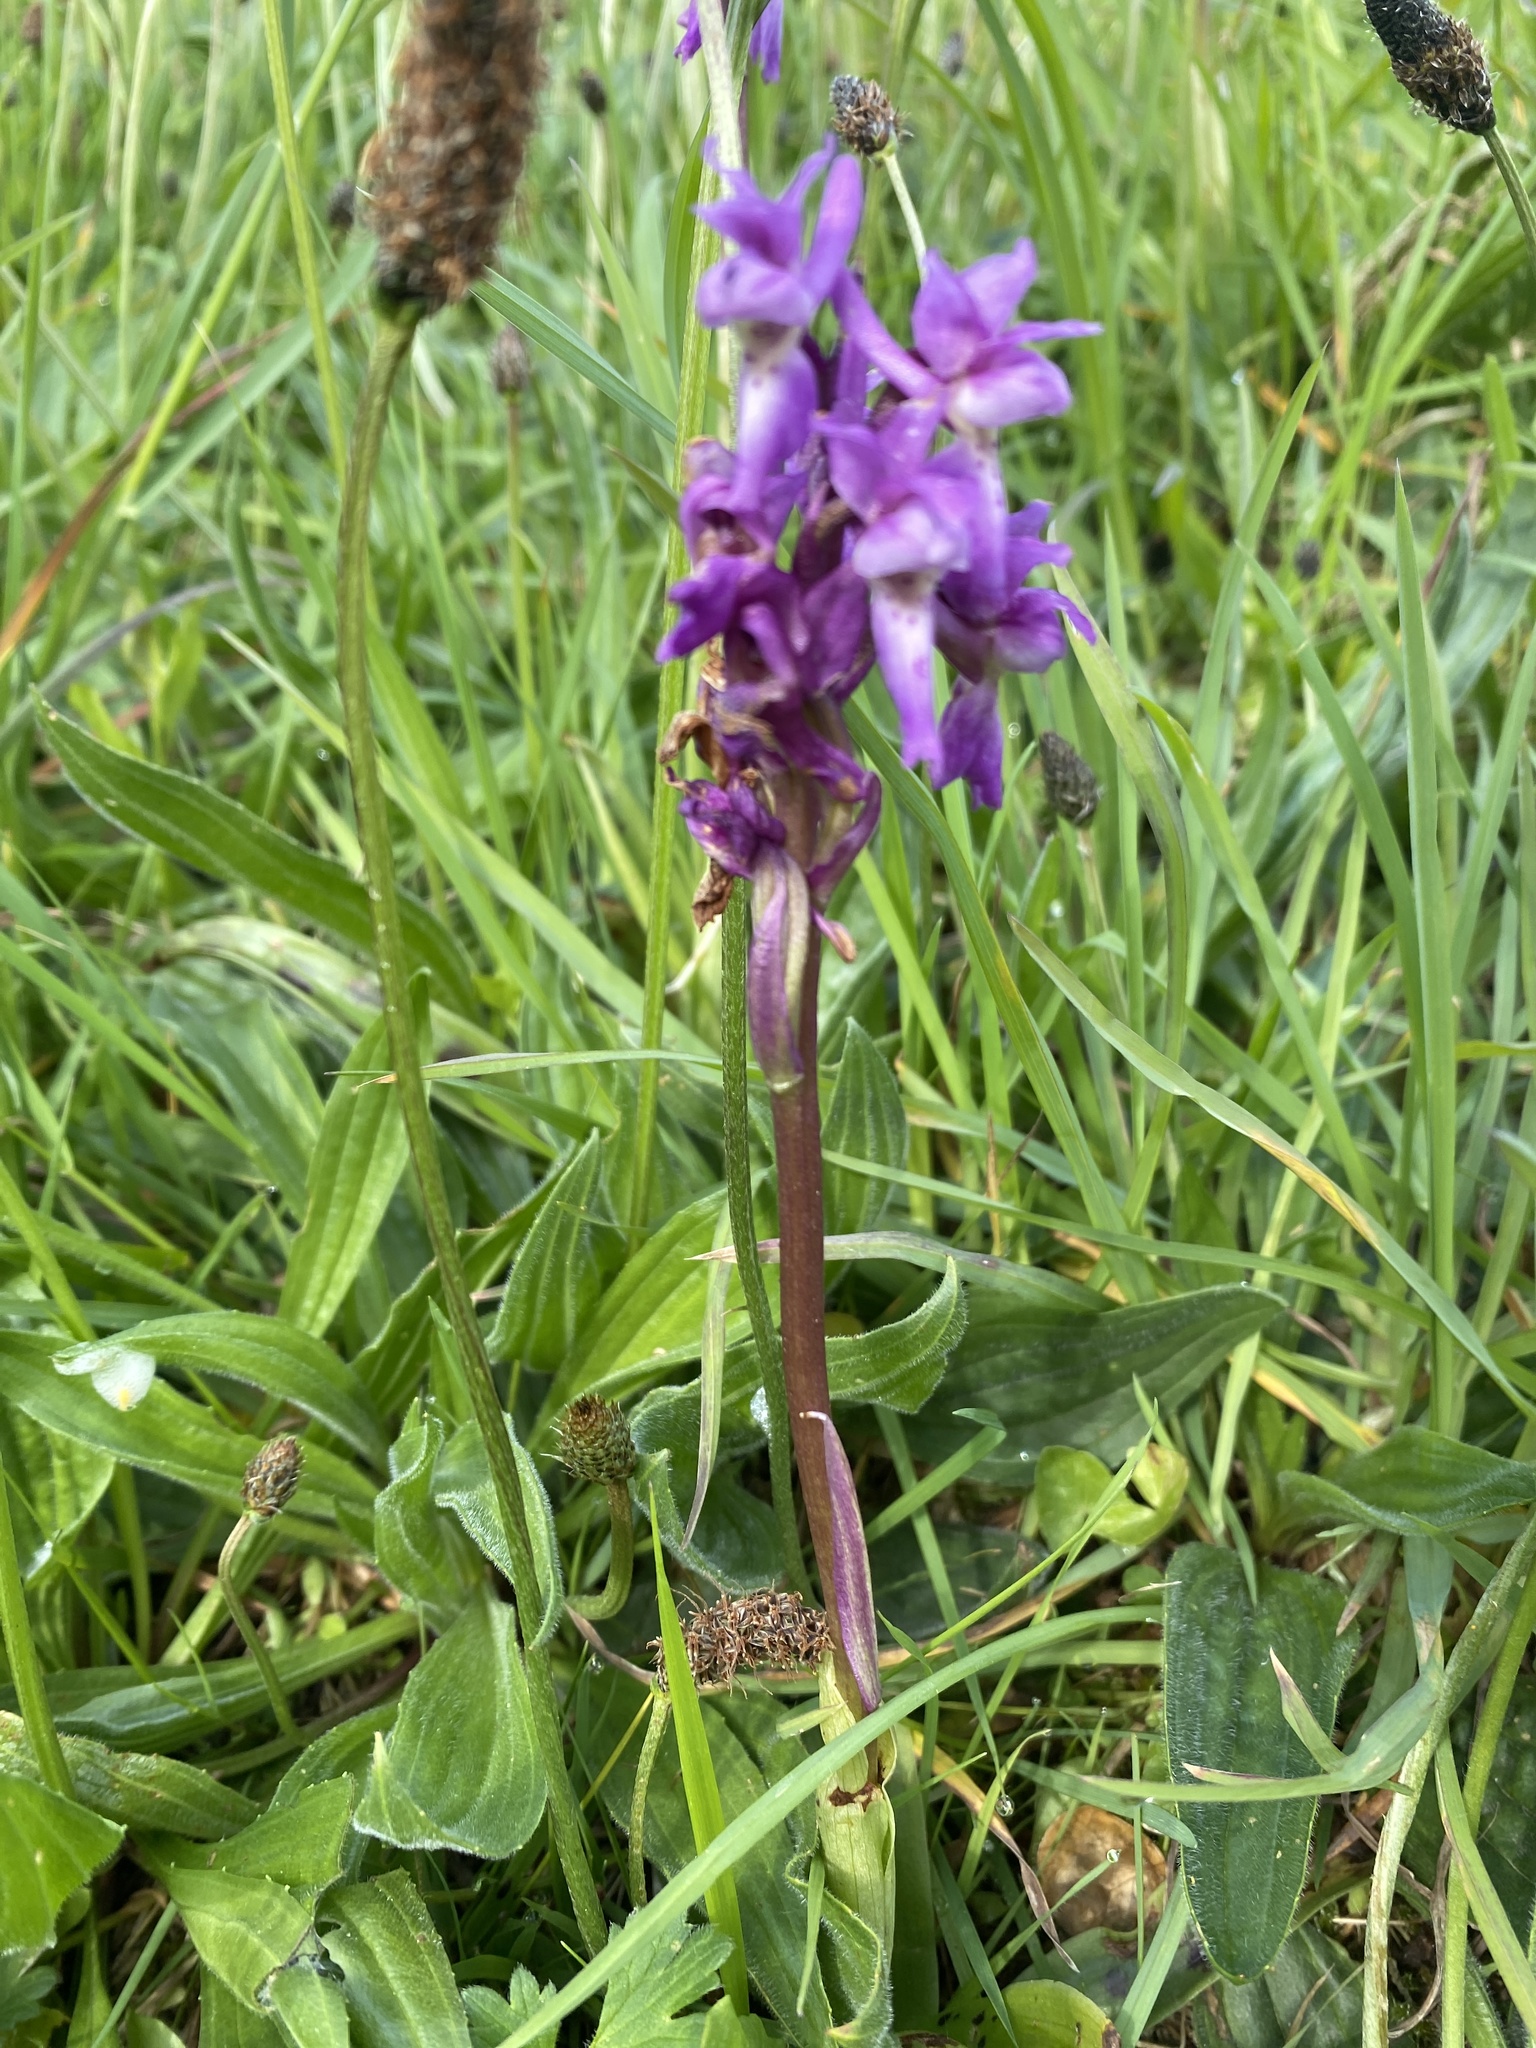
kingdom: Plantae
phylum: Tracheophyta
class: Liliopsida
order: Asparagales
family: Orchidaceae
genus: Orchis
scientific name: Orchis mascula
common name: Early-purple orchid
